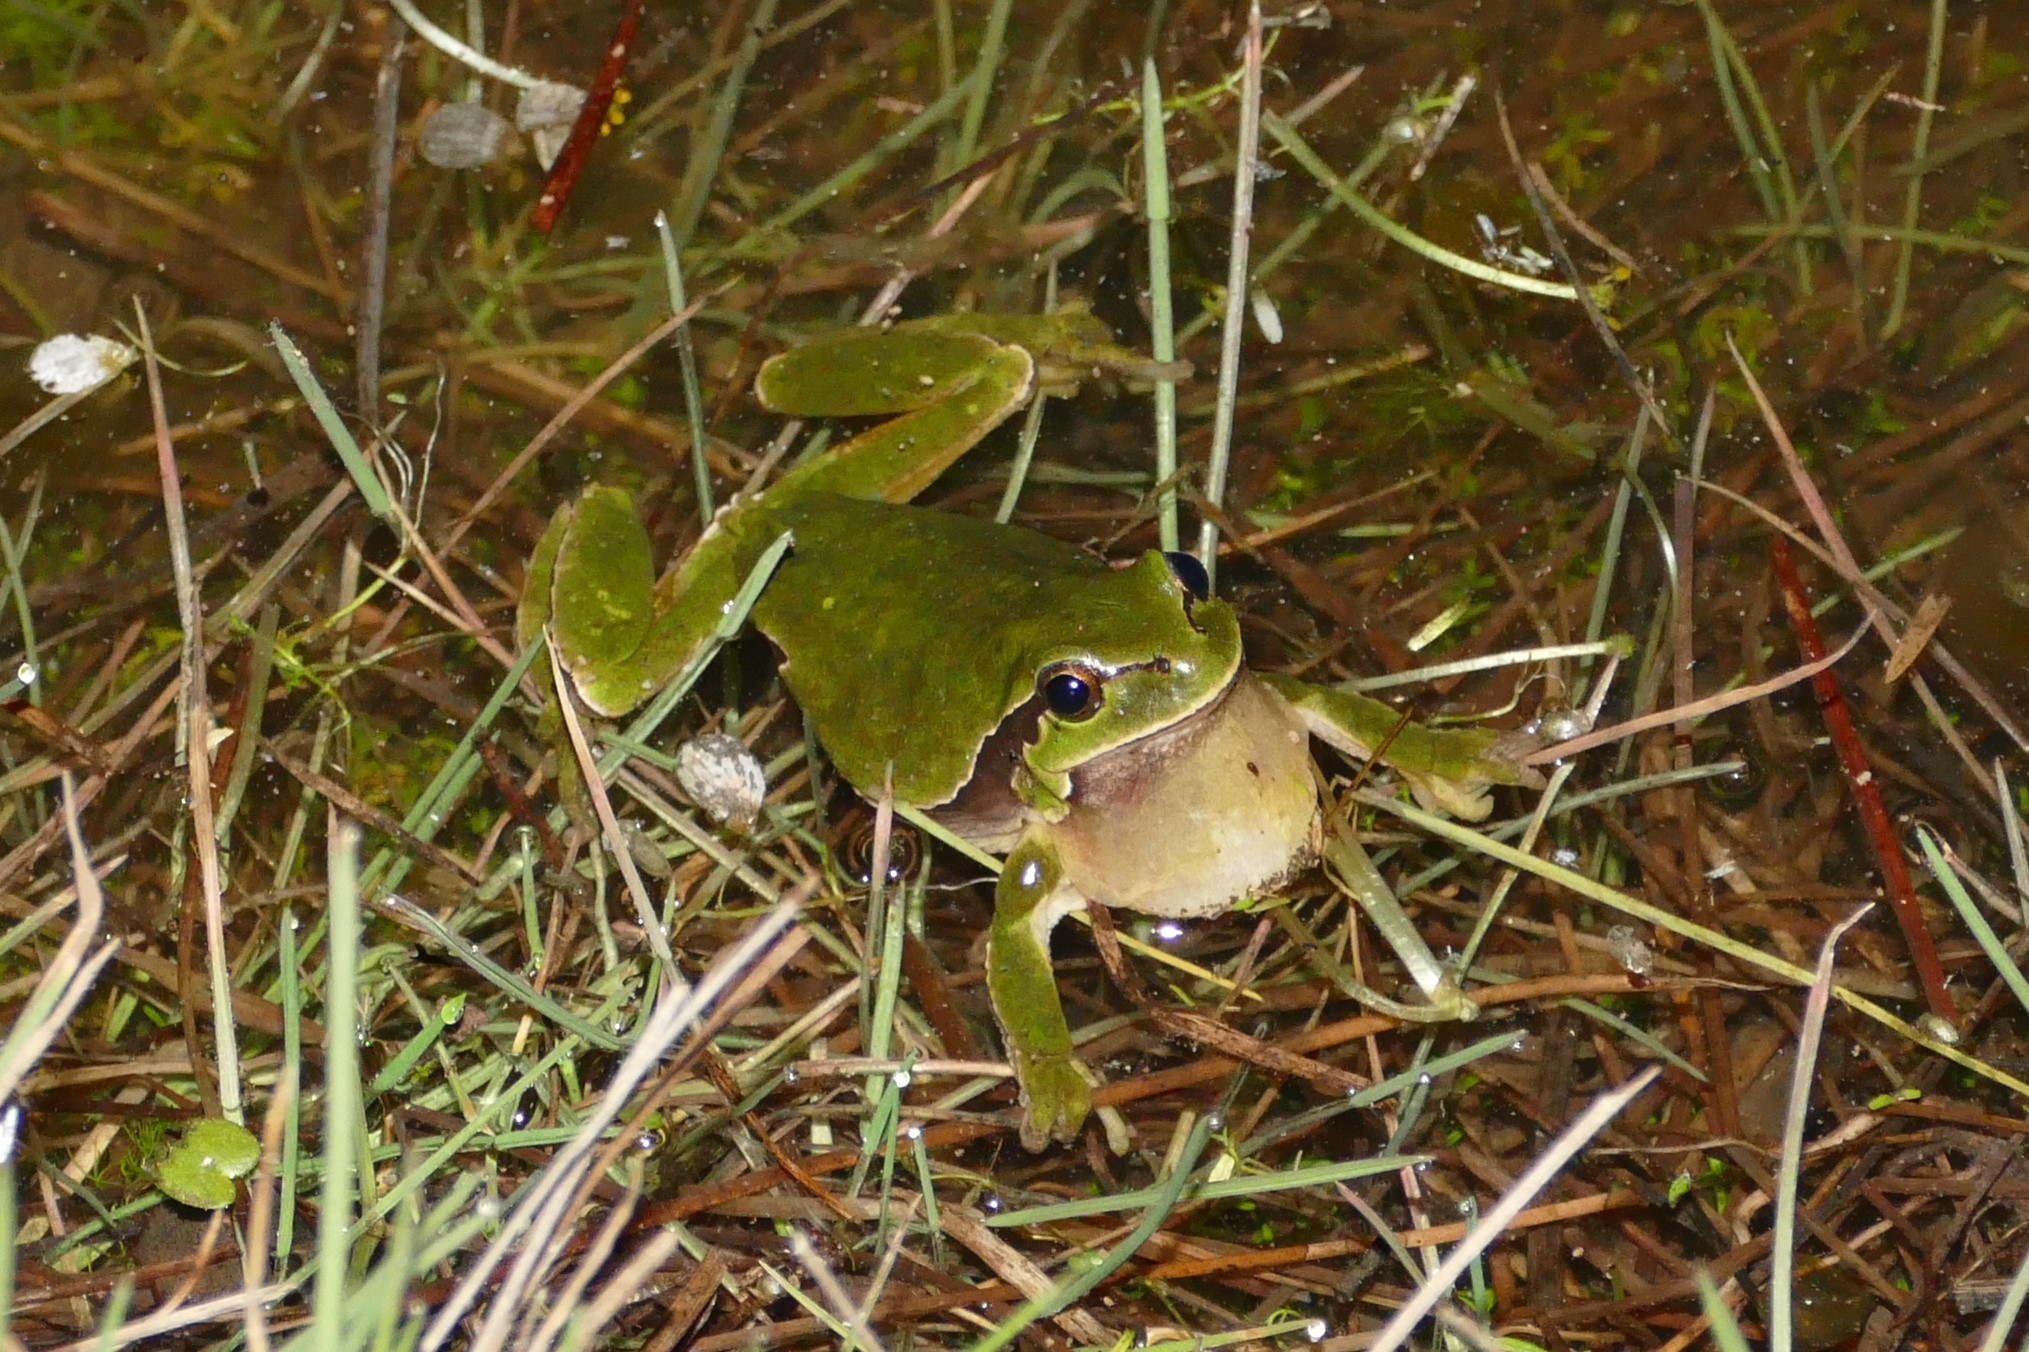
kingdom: Animalia
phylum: Chordata
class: Amphibia
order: Anura
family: Hylidae
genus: Hyla
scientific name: Hyla molleri
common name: Iberian tree frog
